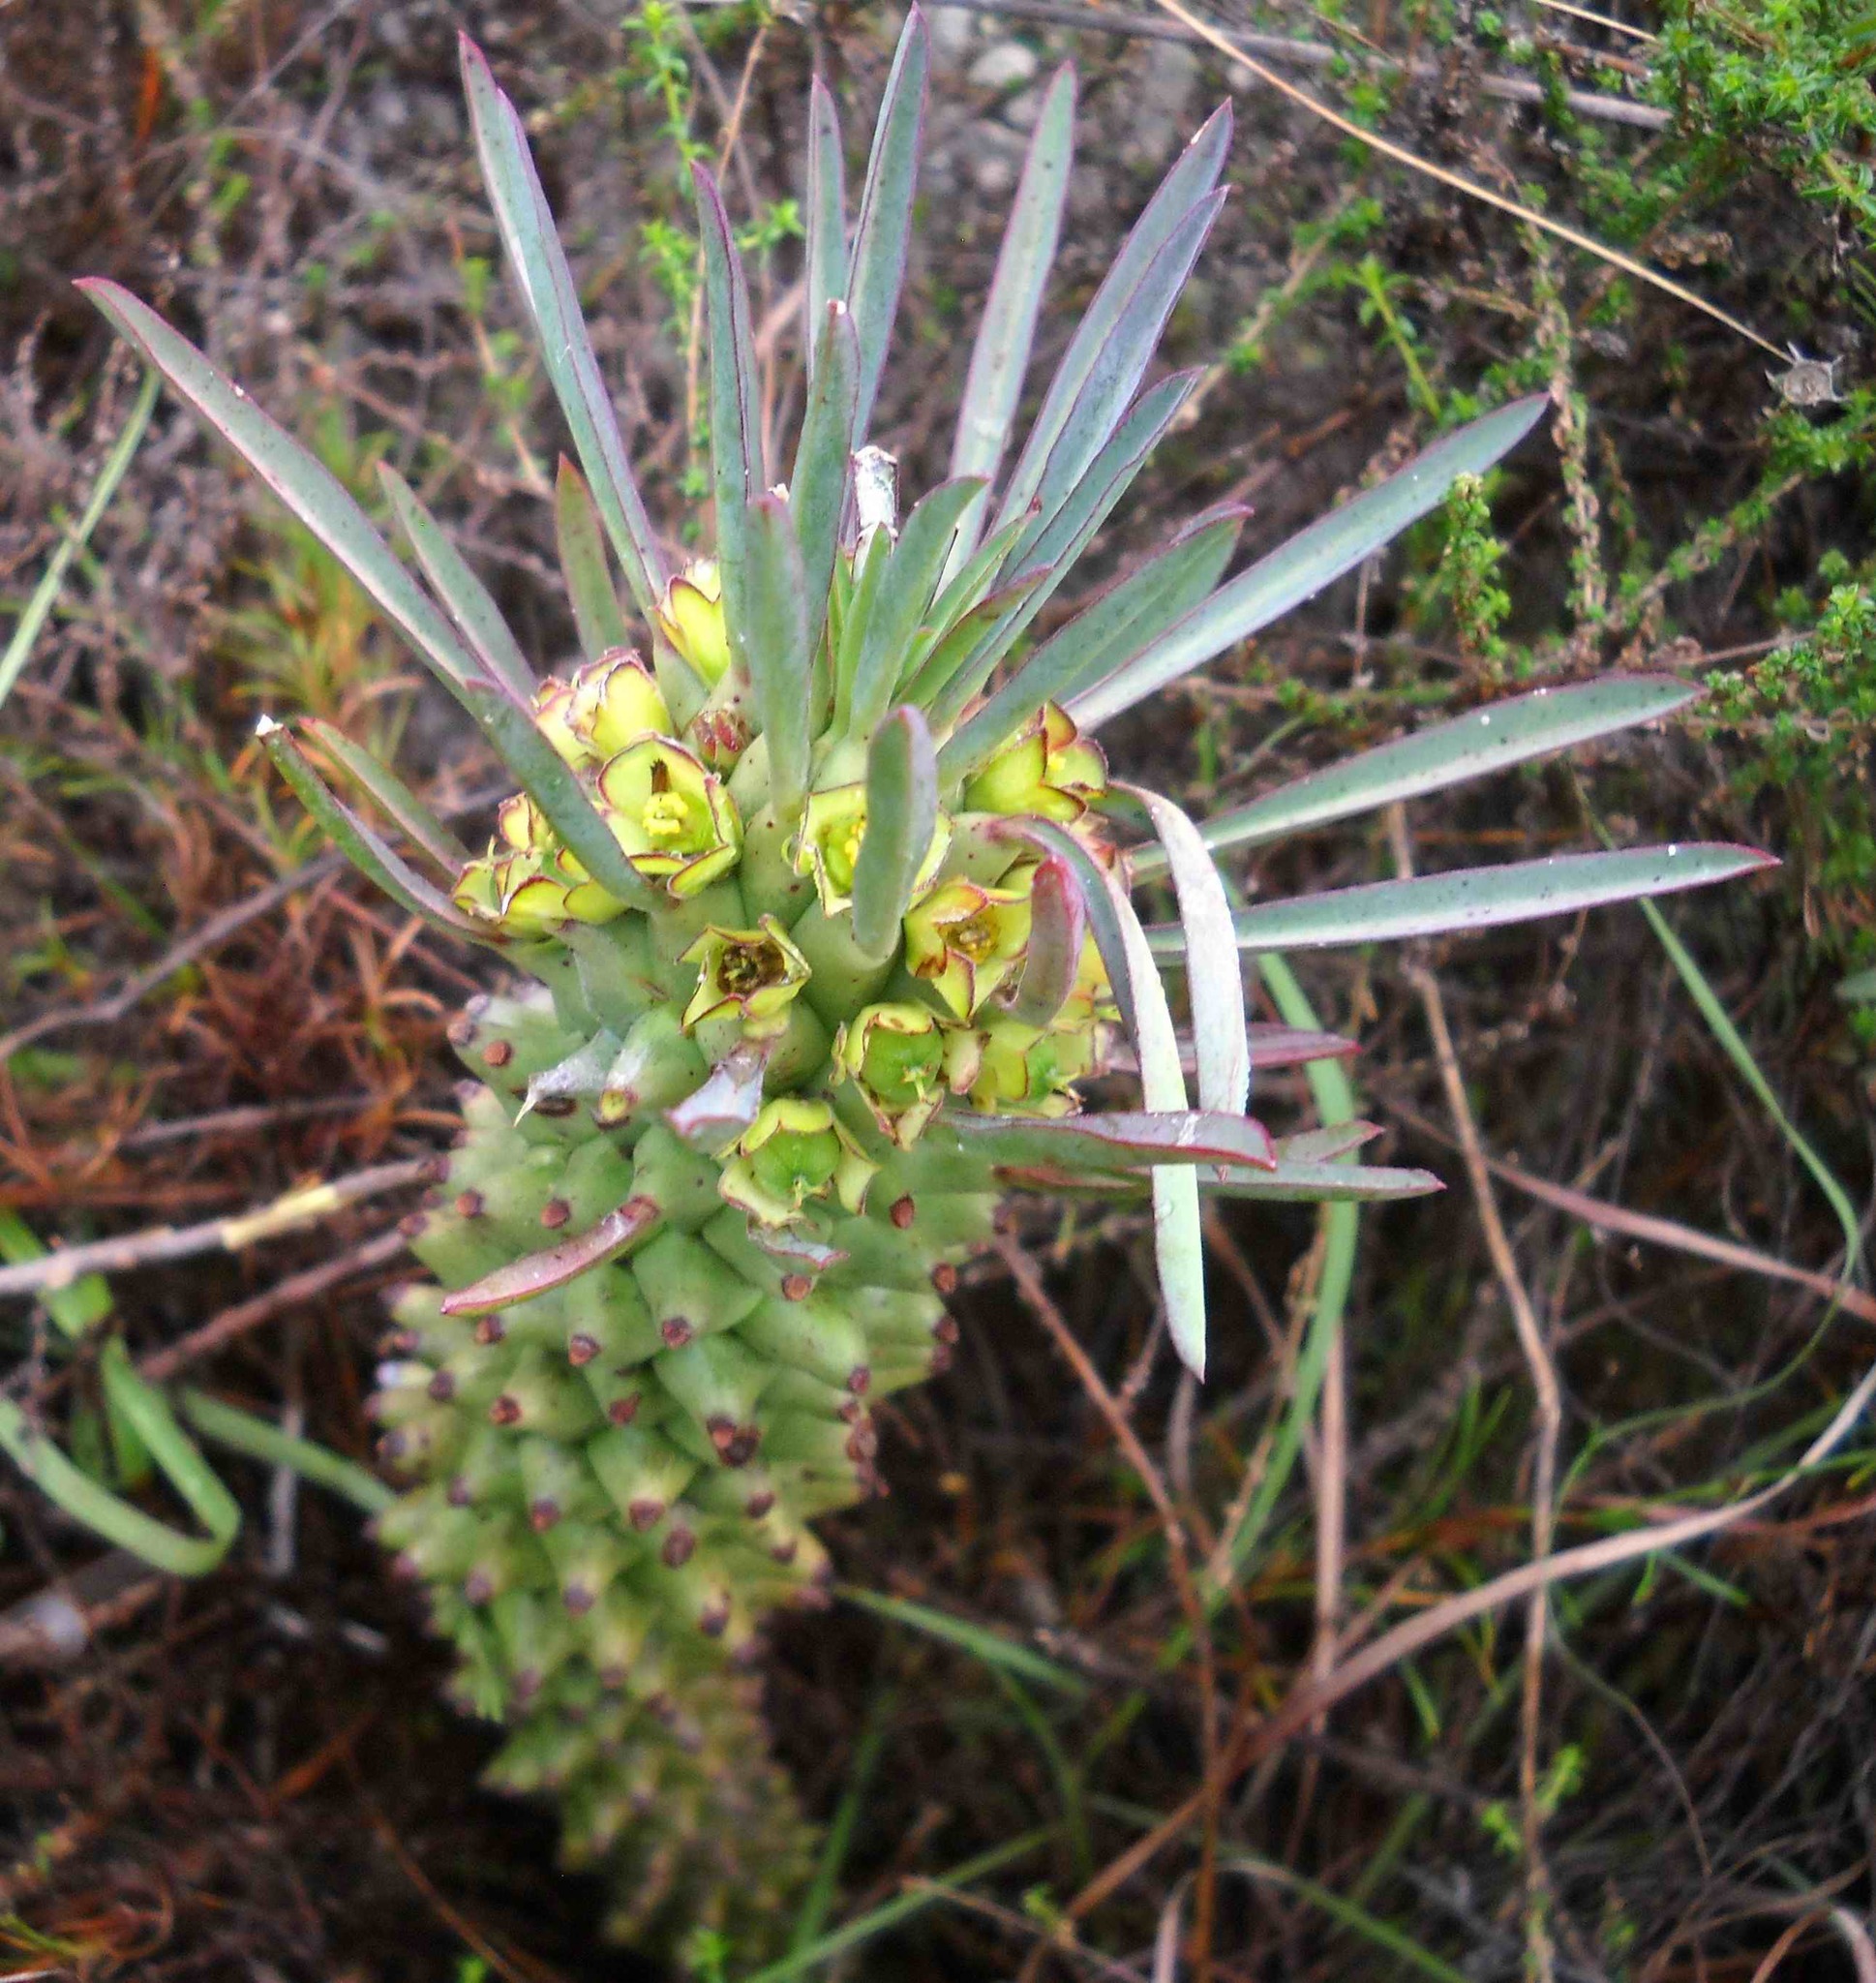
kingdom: Plantae
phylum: Tracheophyta
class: Magnoliopsida
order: Malpighiales
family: Euphorbiaceae
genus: Euphorbia
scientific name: Euphorbia clandestina
